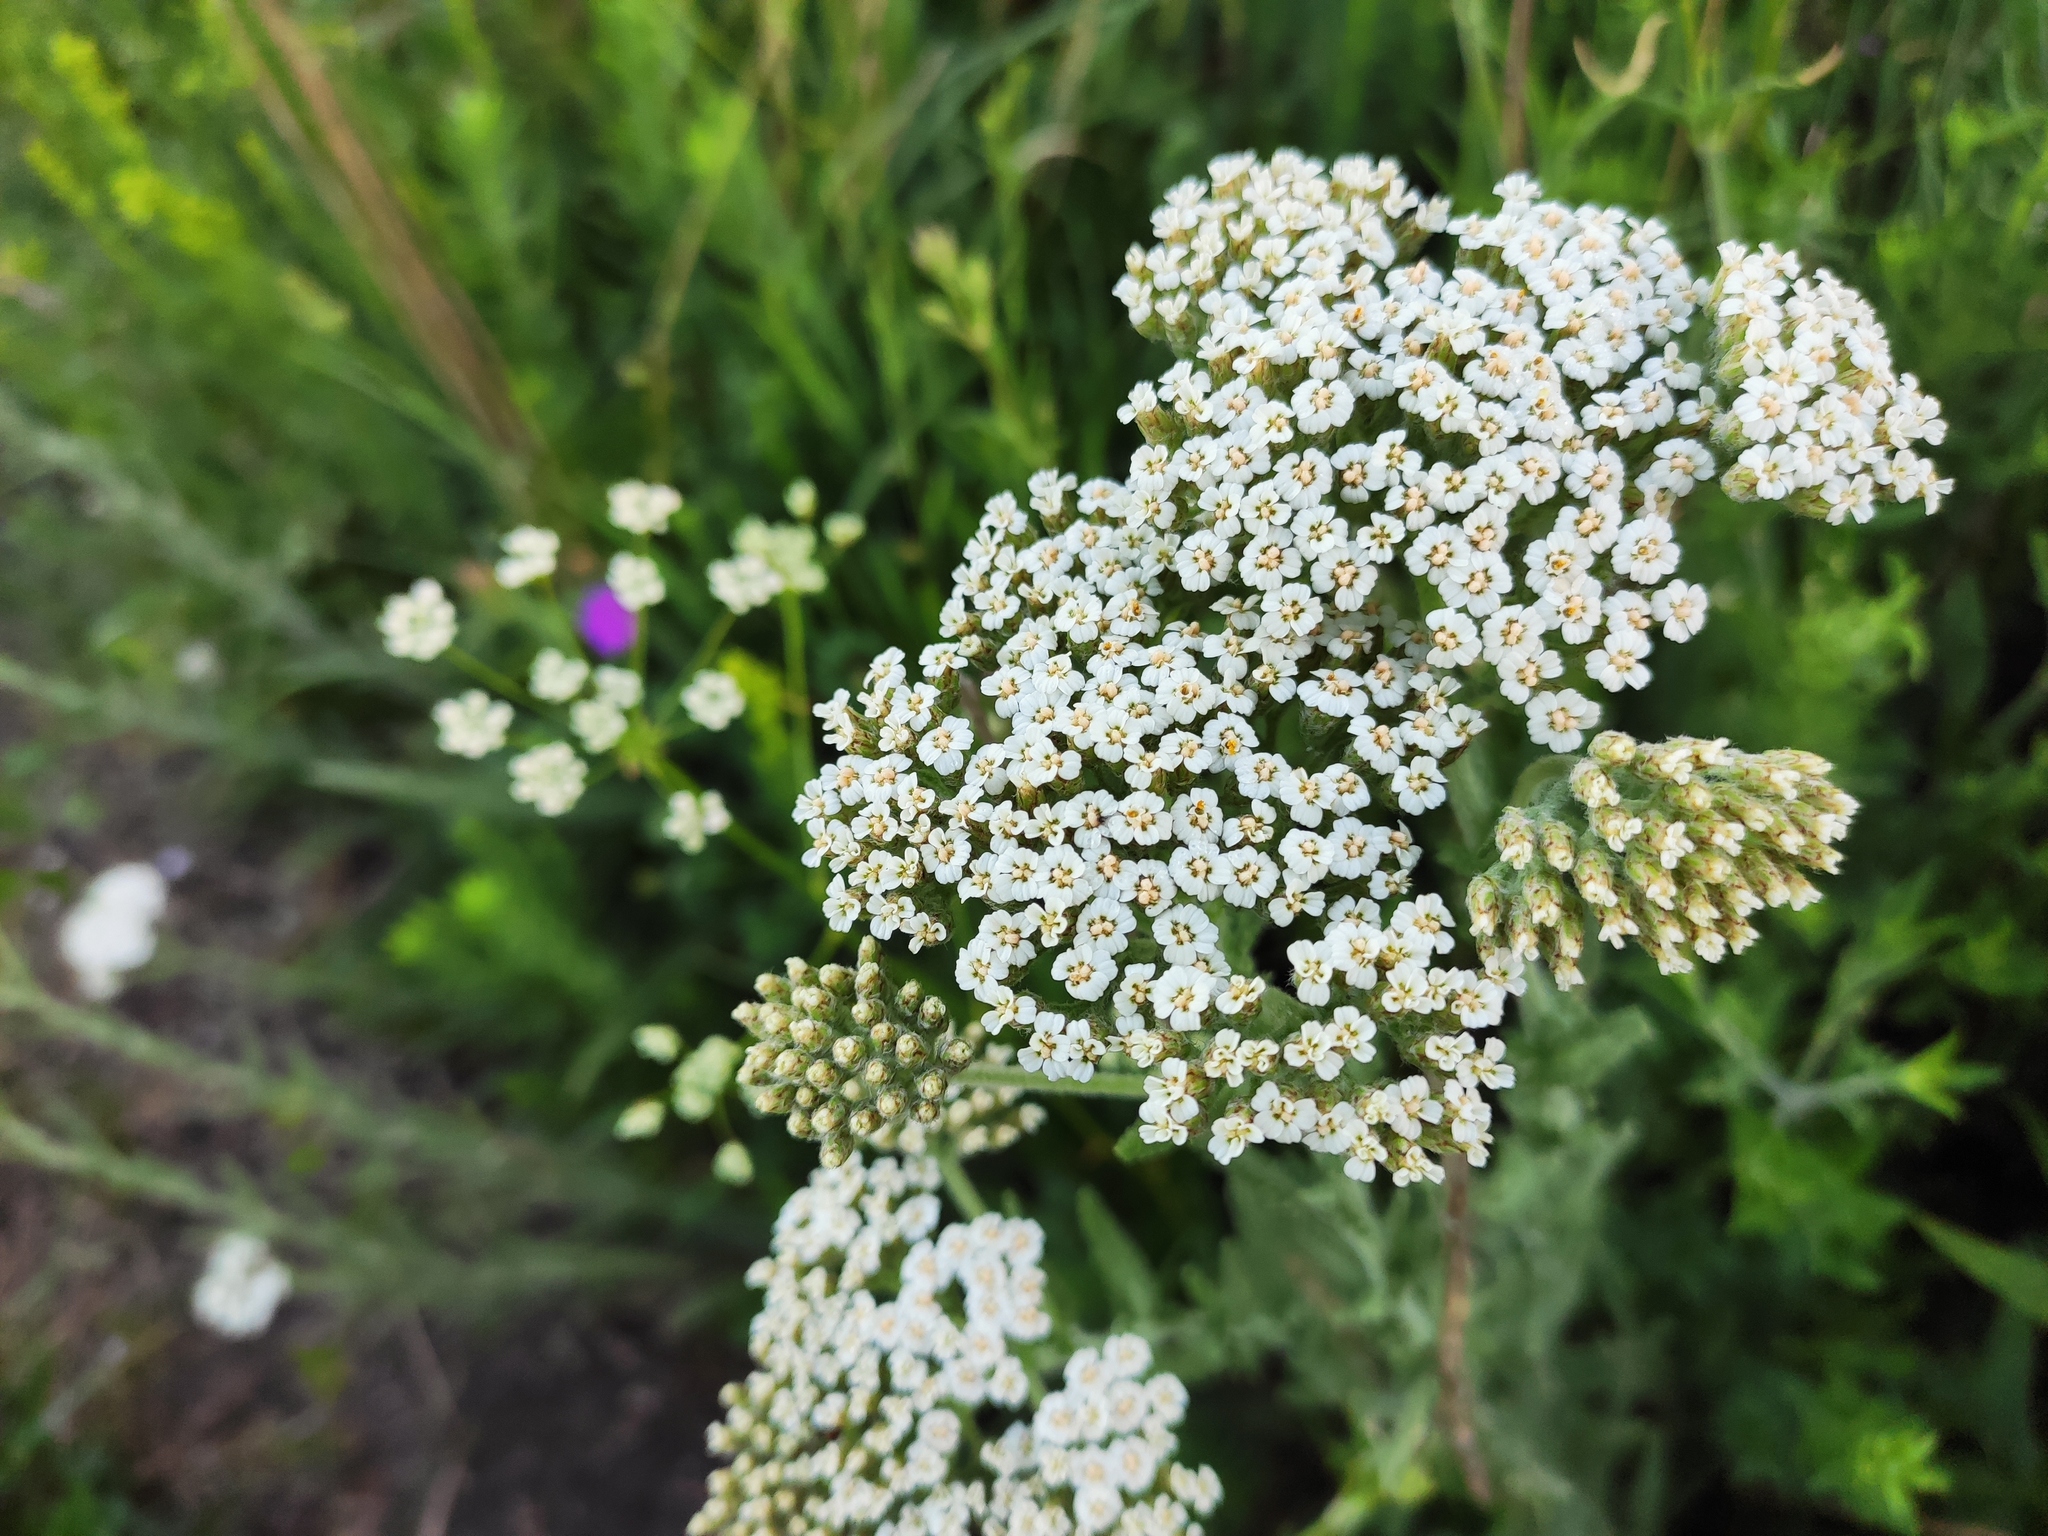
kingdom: Plantae
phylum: Tracheophyta
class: Magnoliopsida
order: Asterales
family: Asteraceae
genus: Achillea
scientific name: Achillea millefolium
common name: Yarrow
